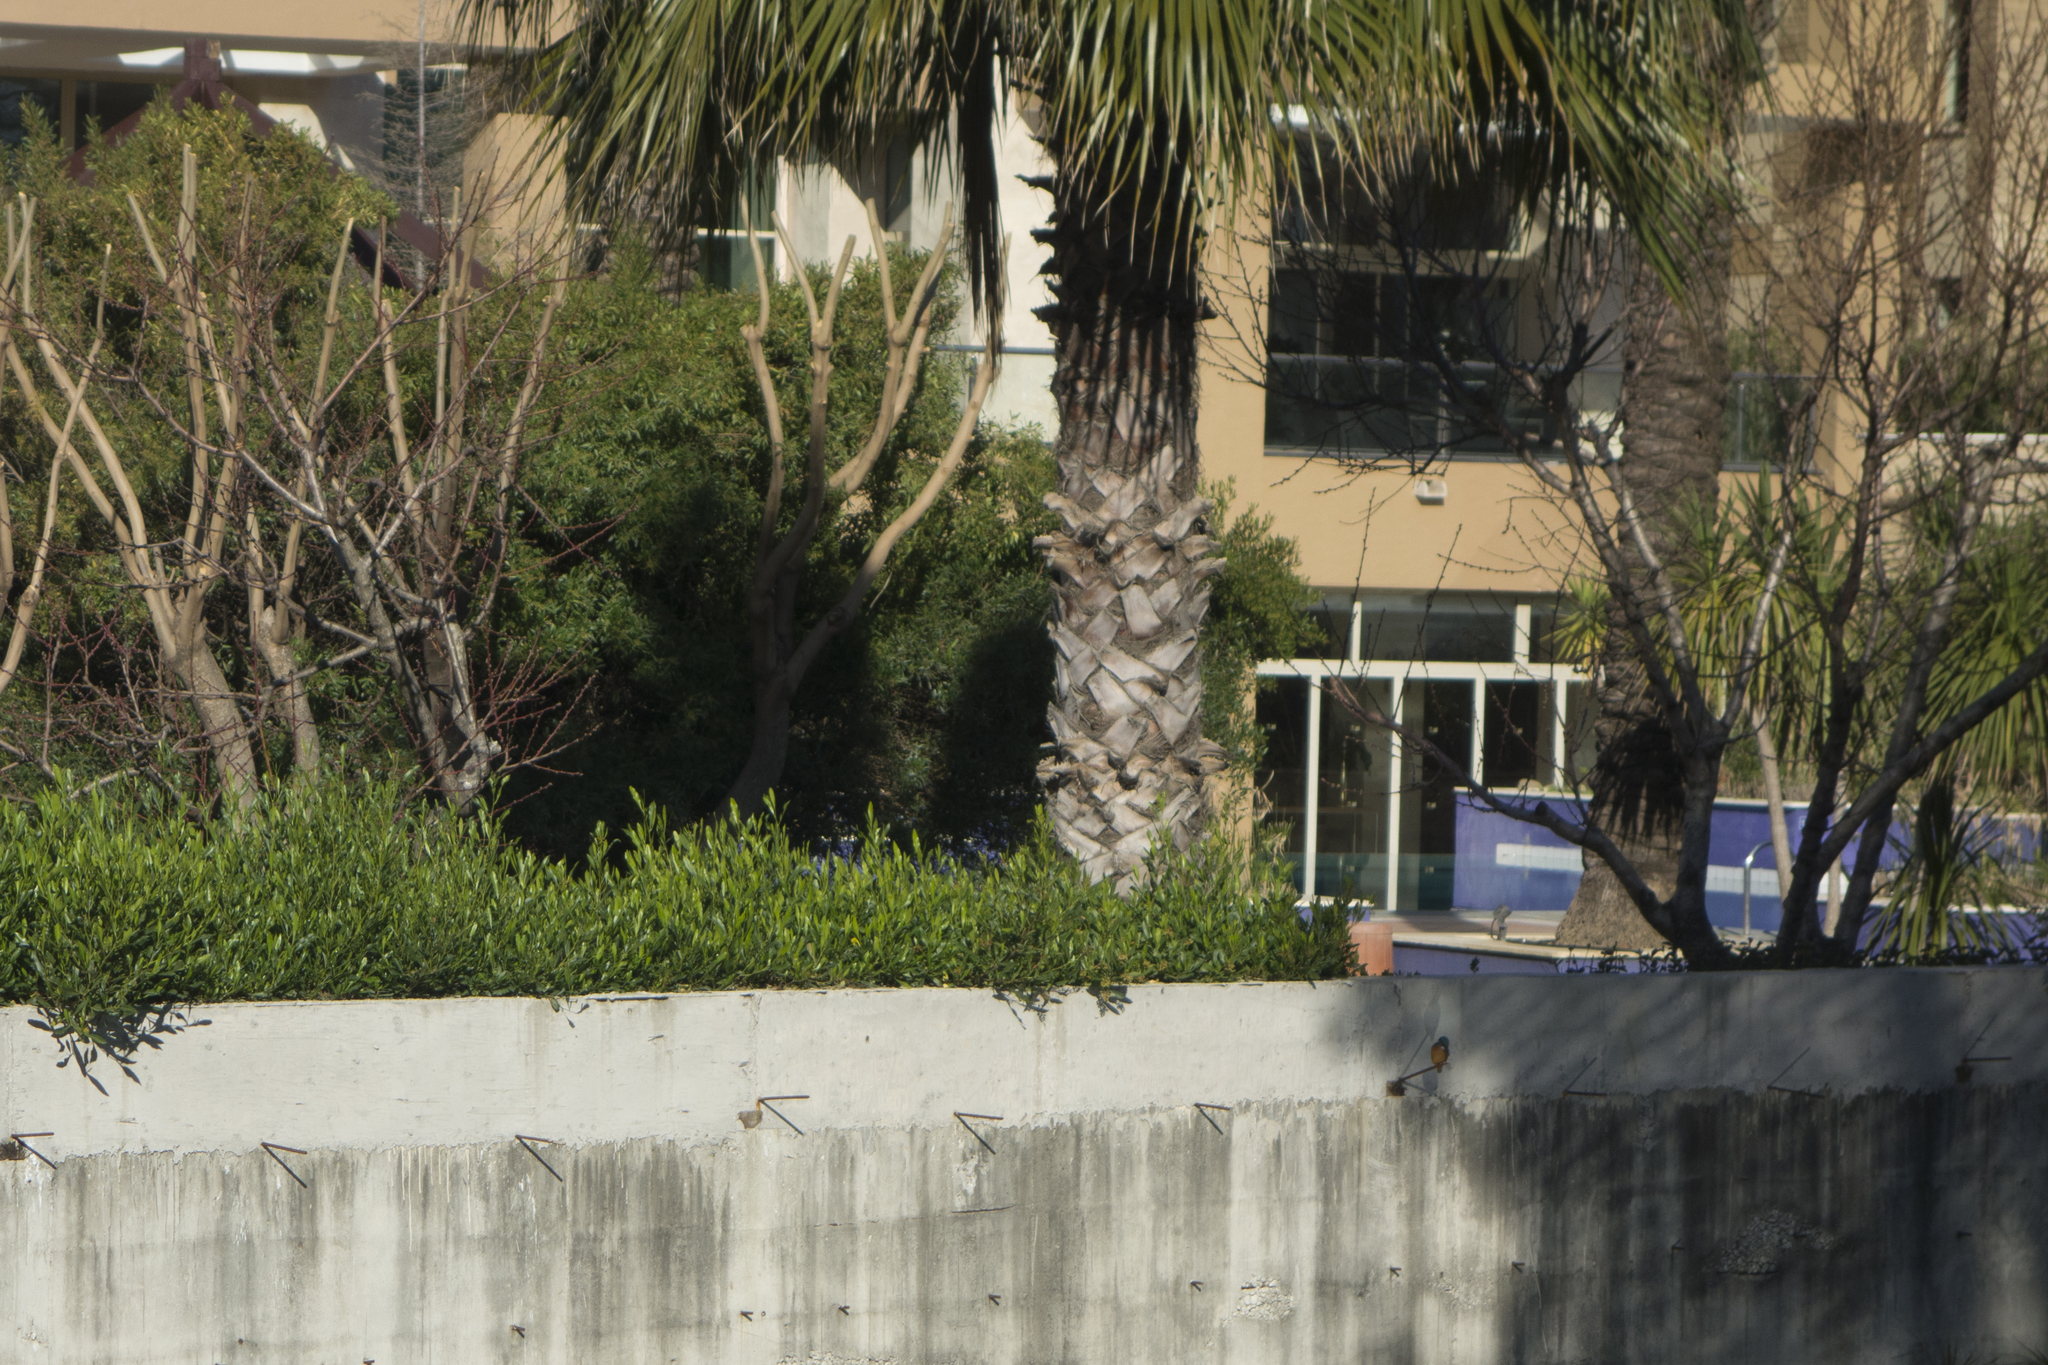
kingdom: Animalia
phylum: Chordata
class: Aves
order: Coraciiformes
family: Alcedinidae
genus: Alcedo
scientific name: Alcedo atthis
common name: Common kingfisher
